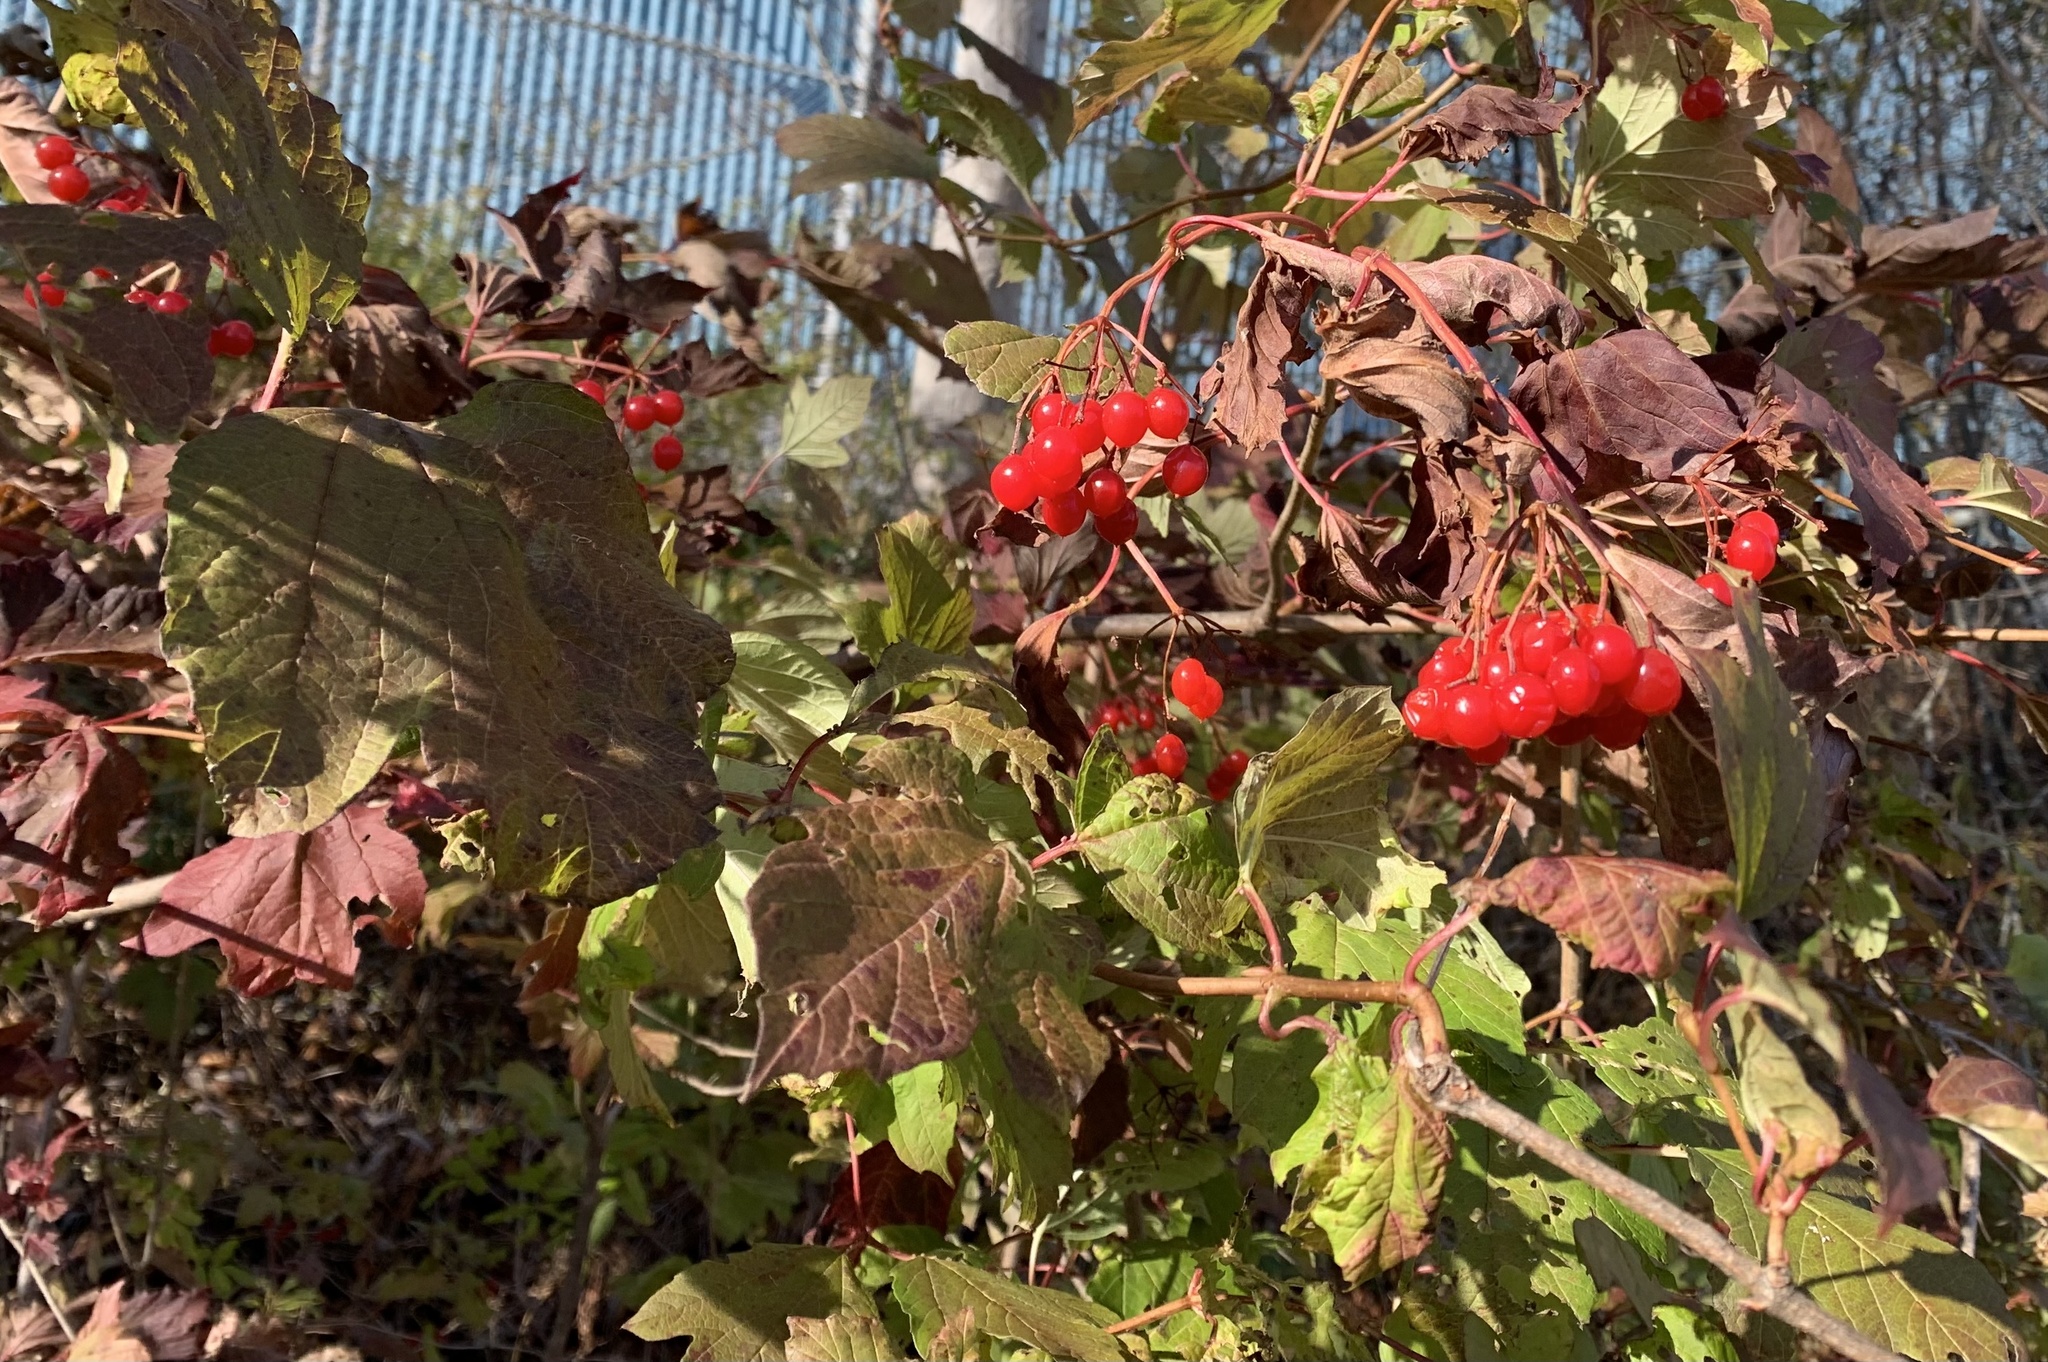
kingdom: Plantae
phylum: Tracheophyta
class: Magnoliopsida
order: Dipsacales
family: Viburnaceae
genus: Viburnum
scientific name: Viburnum opulus
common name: Guelder-rose
